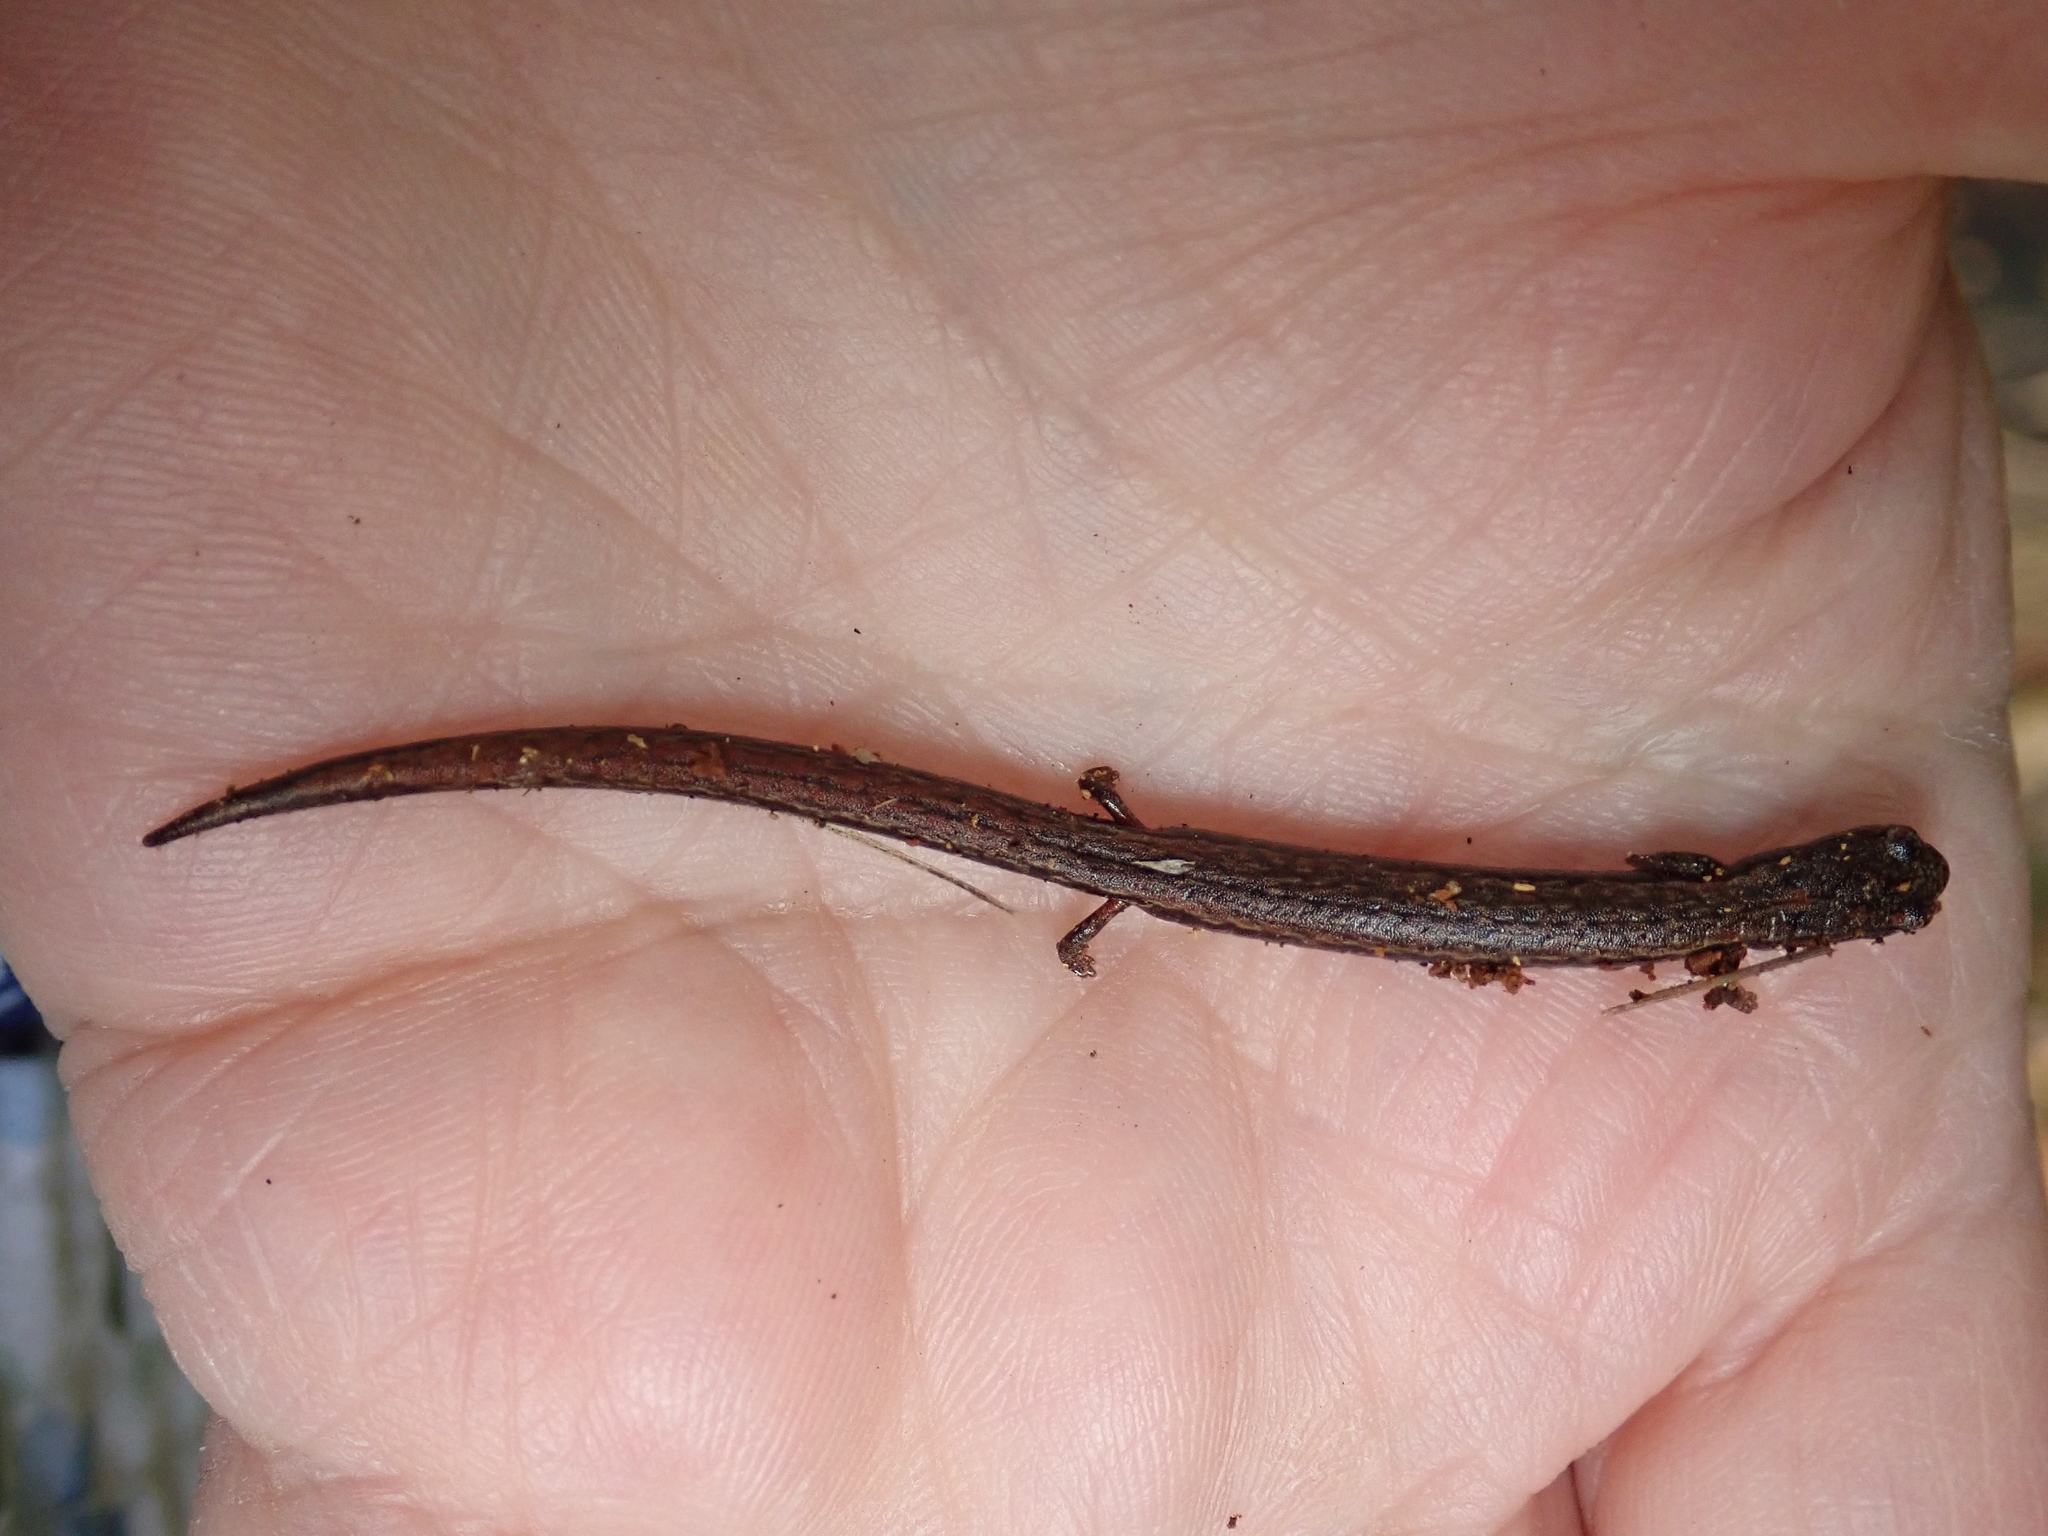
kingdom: Animalia
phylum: Chordata
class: Amphibia
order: Caudata
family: Plethodontidae
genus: Batrachoseps
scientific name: Batrachoseps attenuatus
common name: California slender salamander
